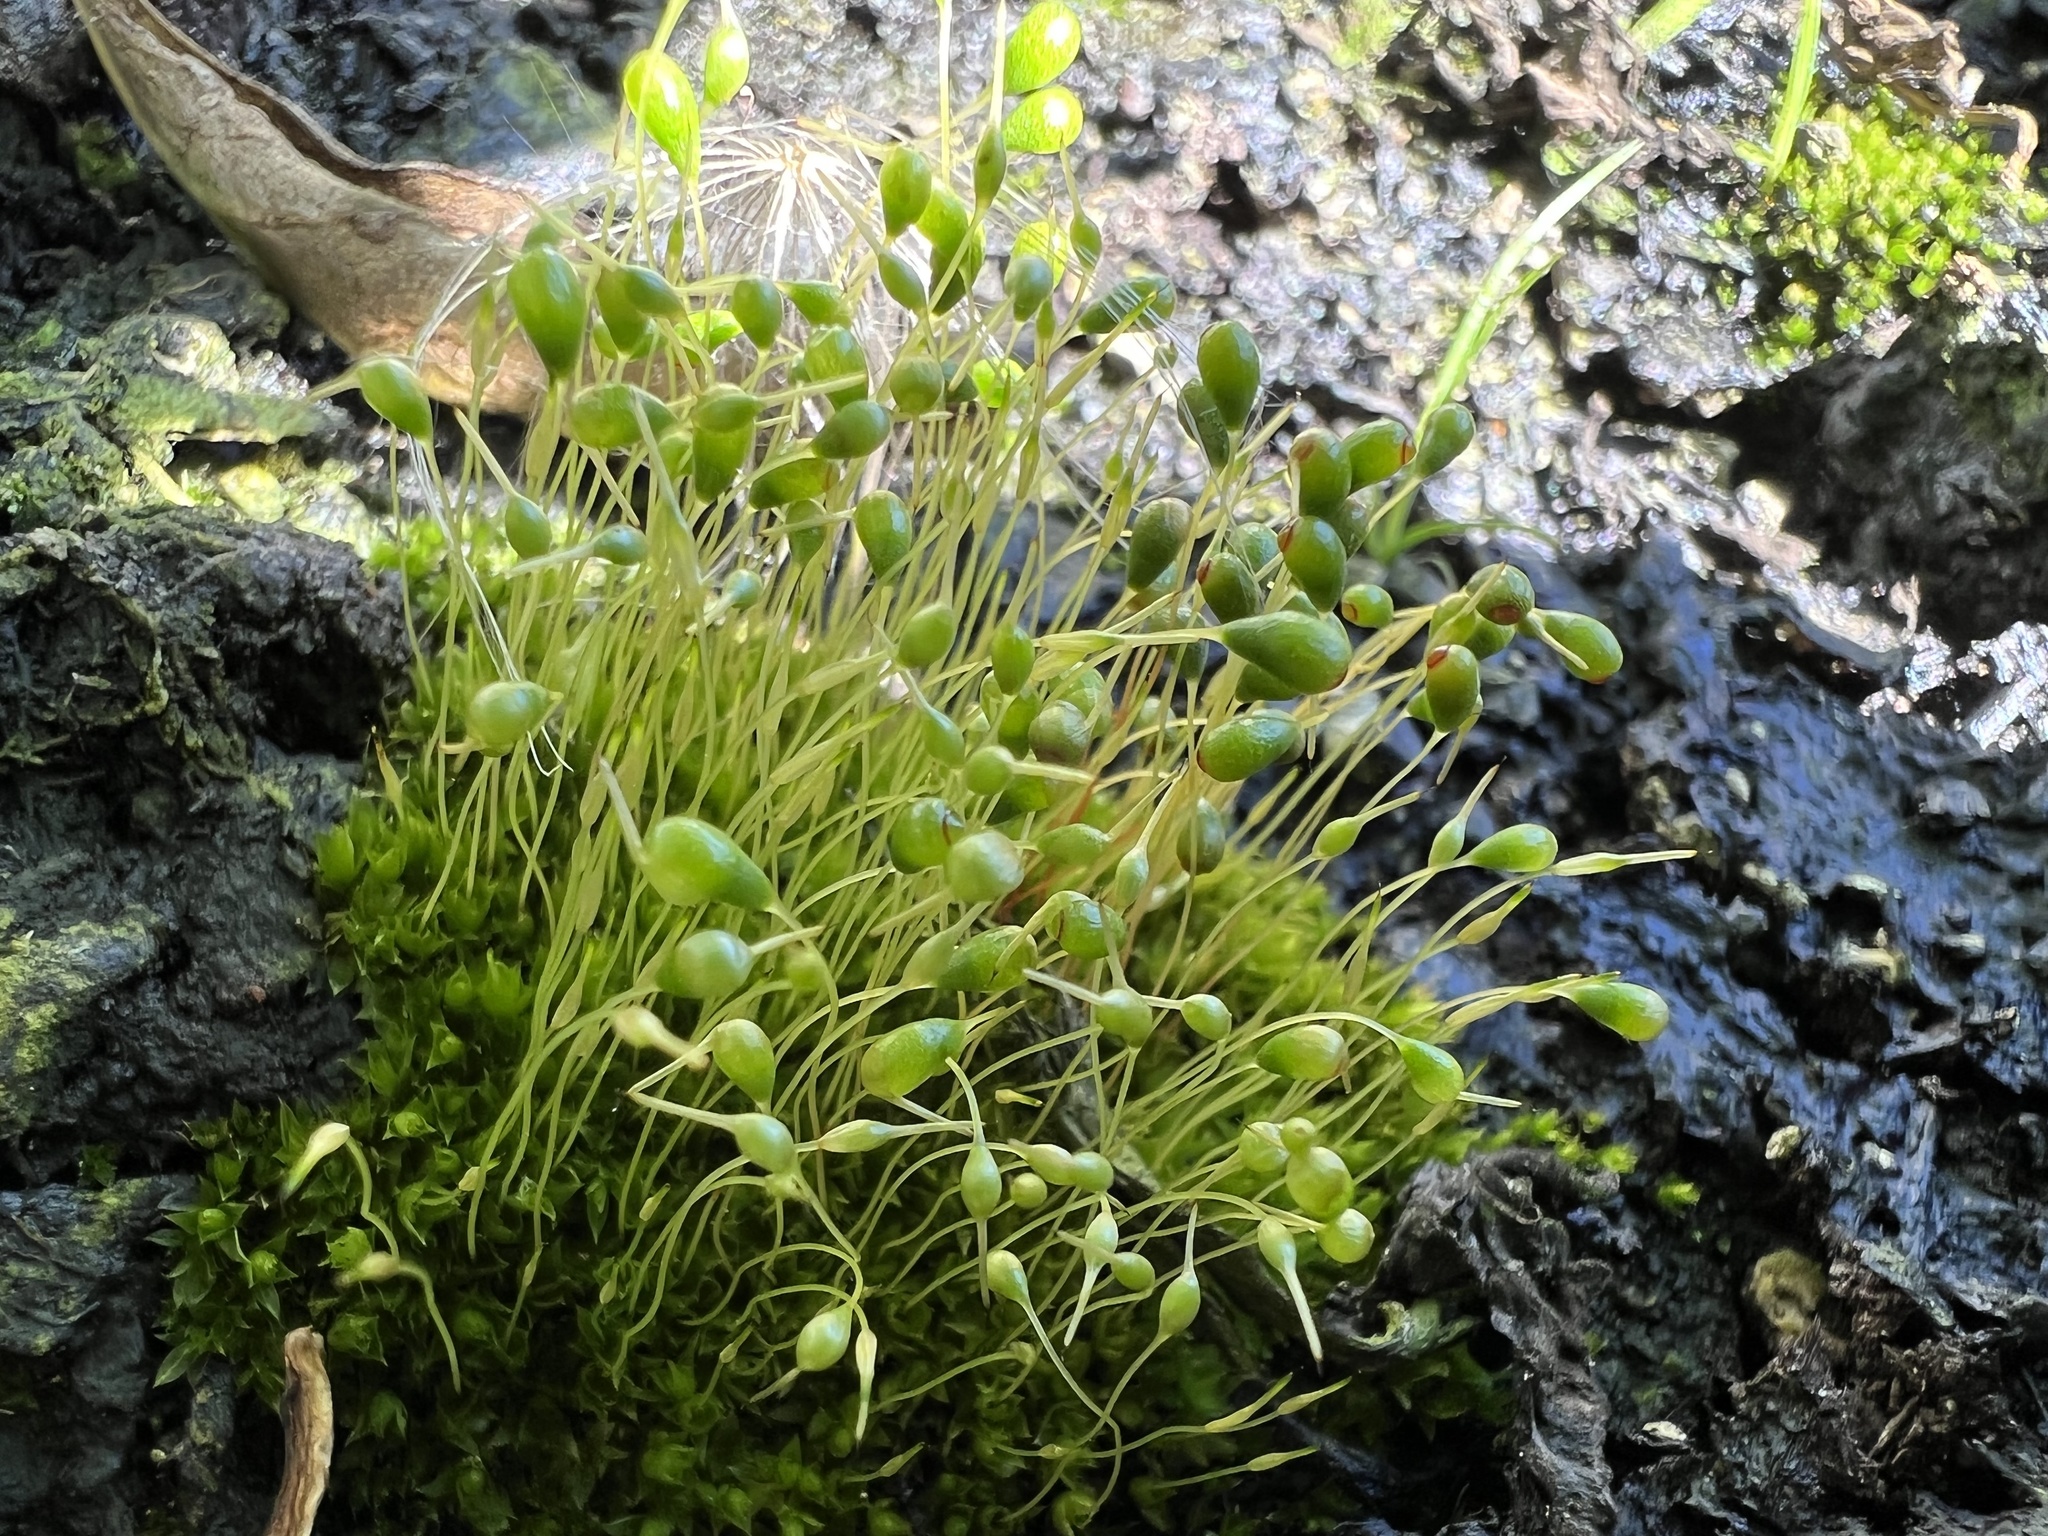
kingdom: Plantae
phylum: Bryophyta
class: Bryopsida
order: Funariales
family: Funariaceae
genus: Funaria
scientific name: Funaria hygrometrica
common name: Common cord moss
